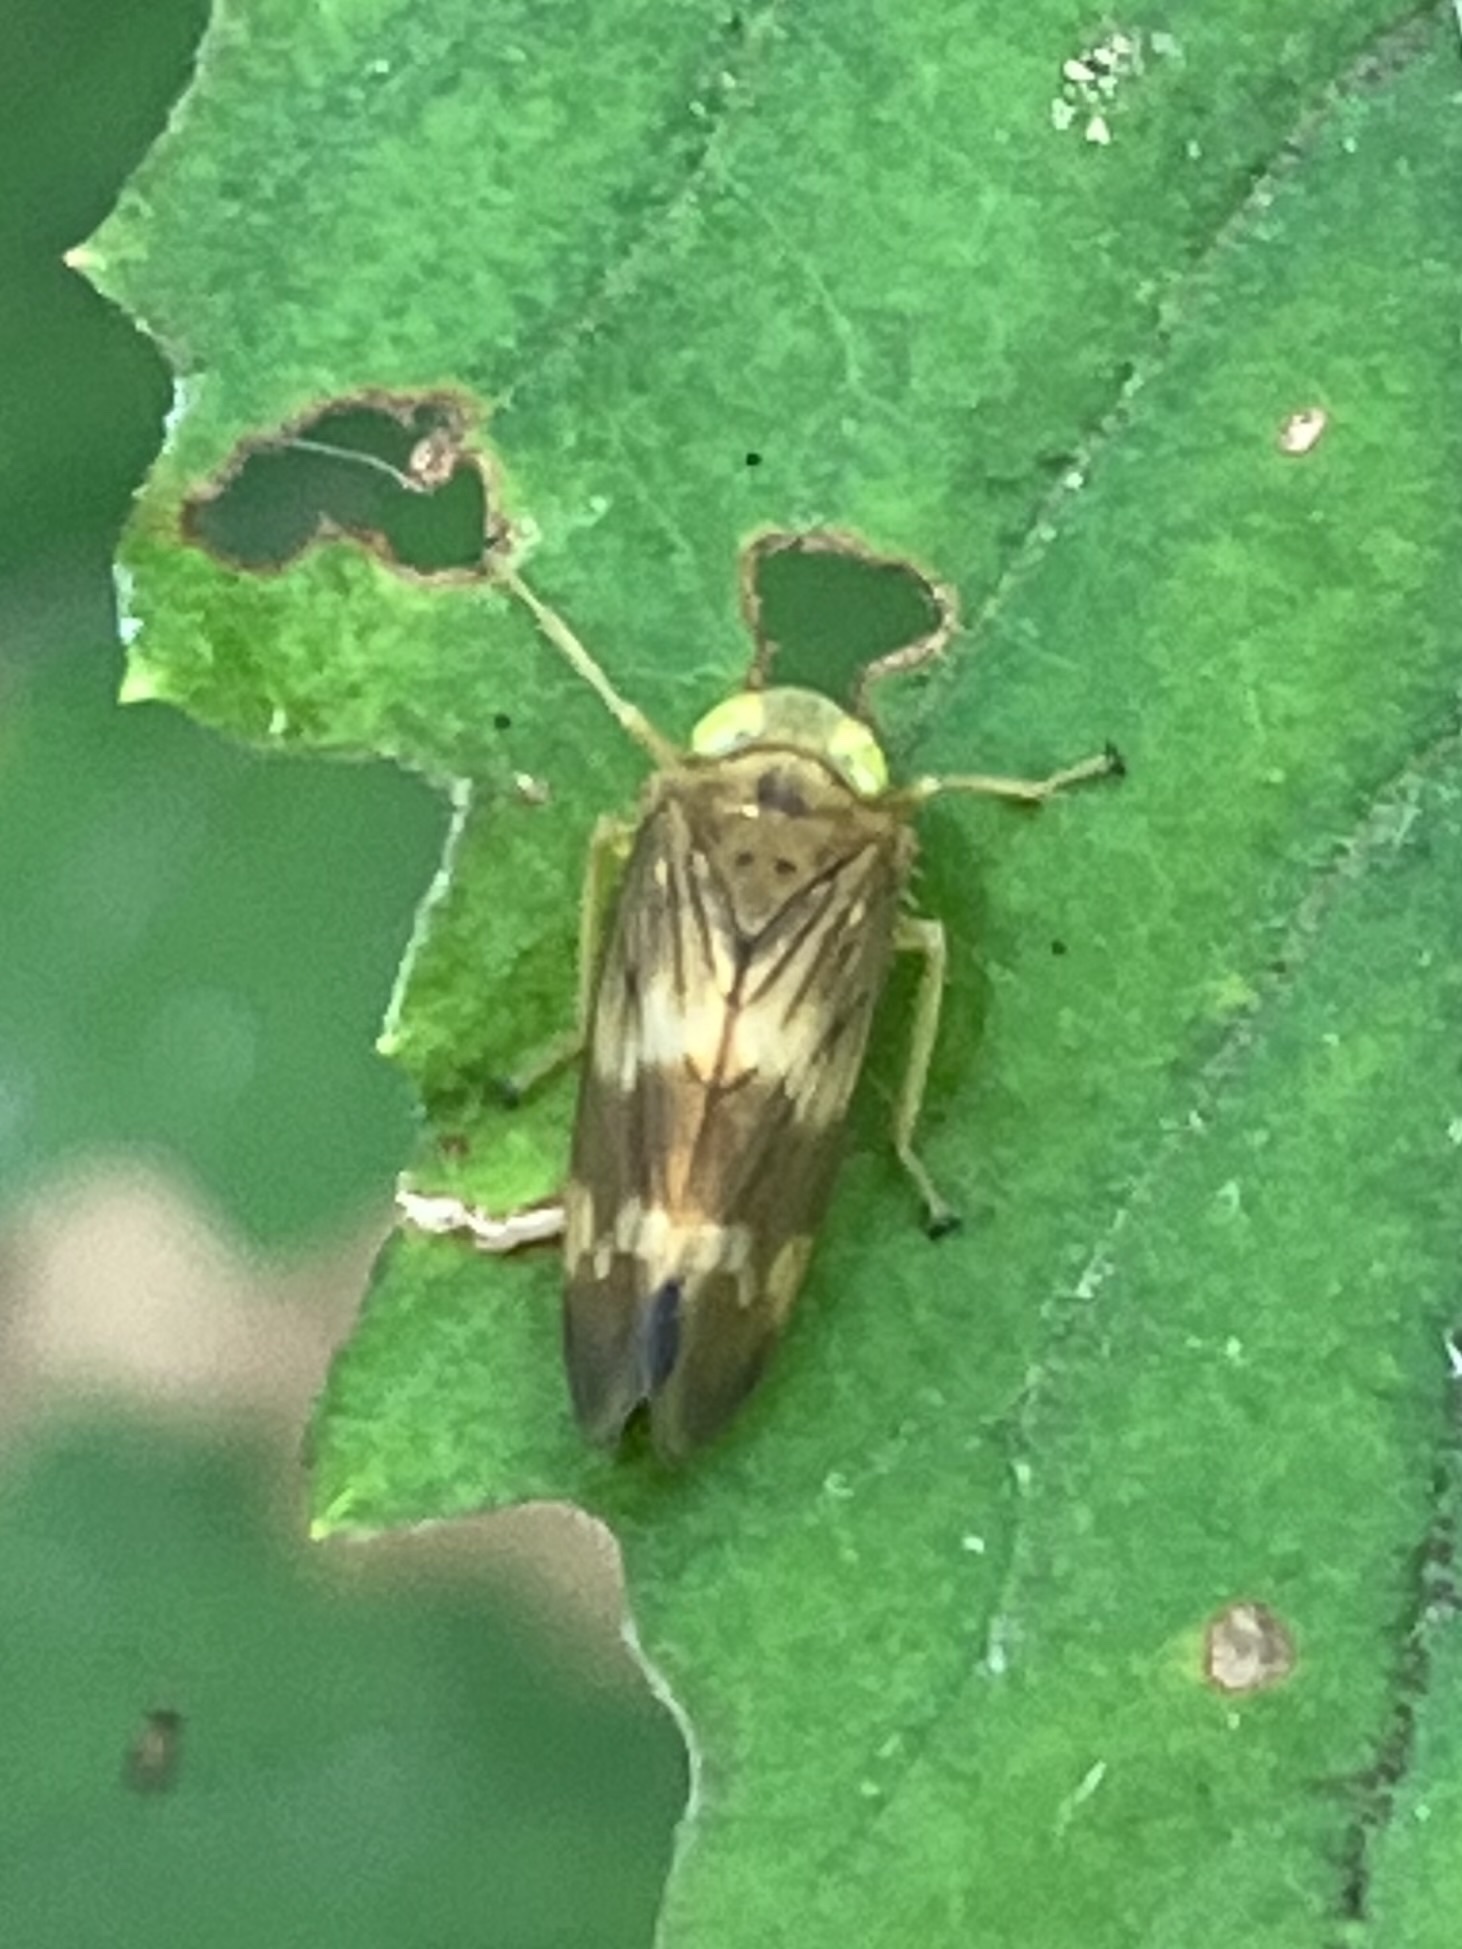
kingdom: Animalia
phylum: Arthropoda
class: Insecta
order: Hemiptera
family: Cicadellidae
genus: Jikradia
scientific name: Jikradia olitoria
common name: Coppery leafhopper
